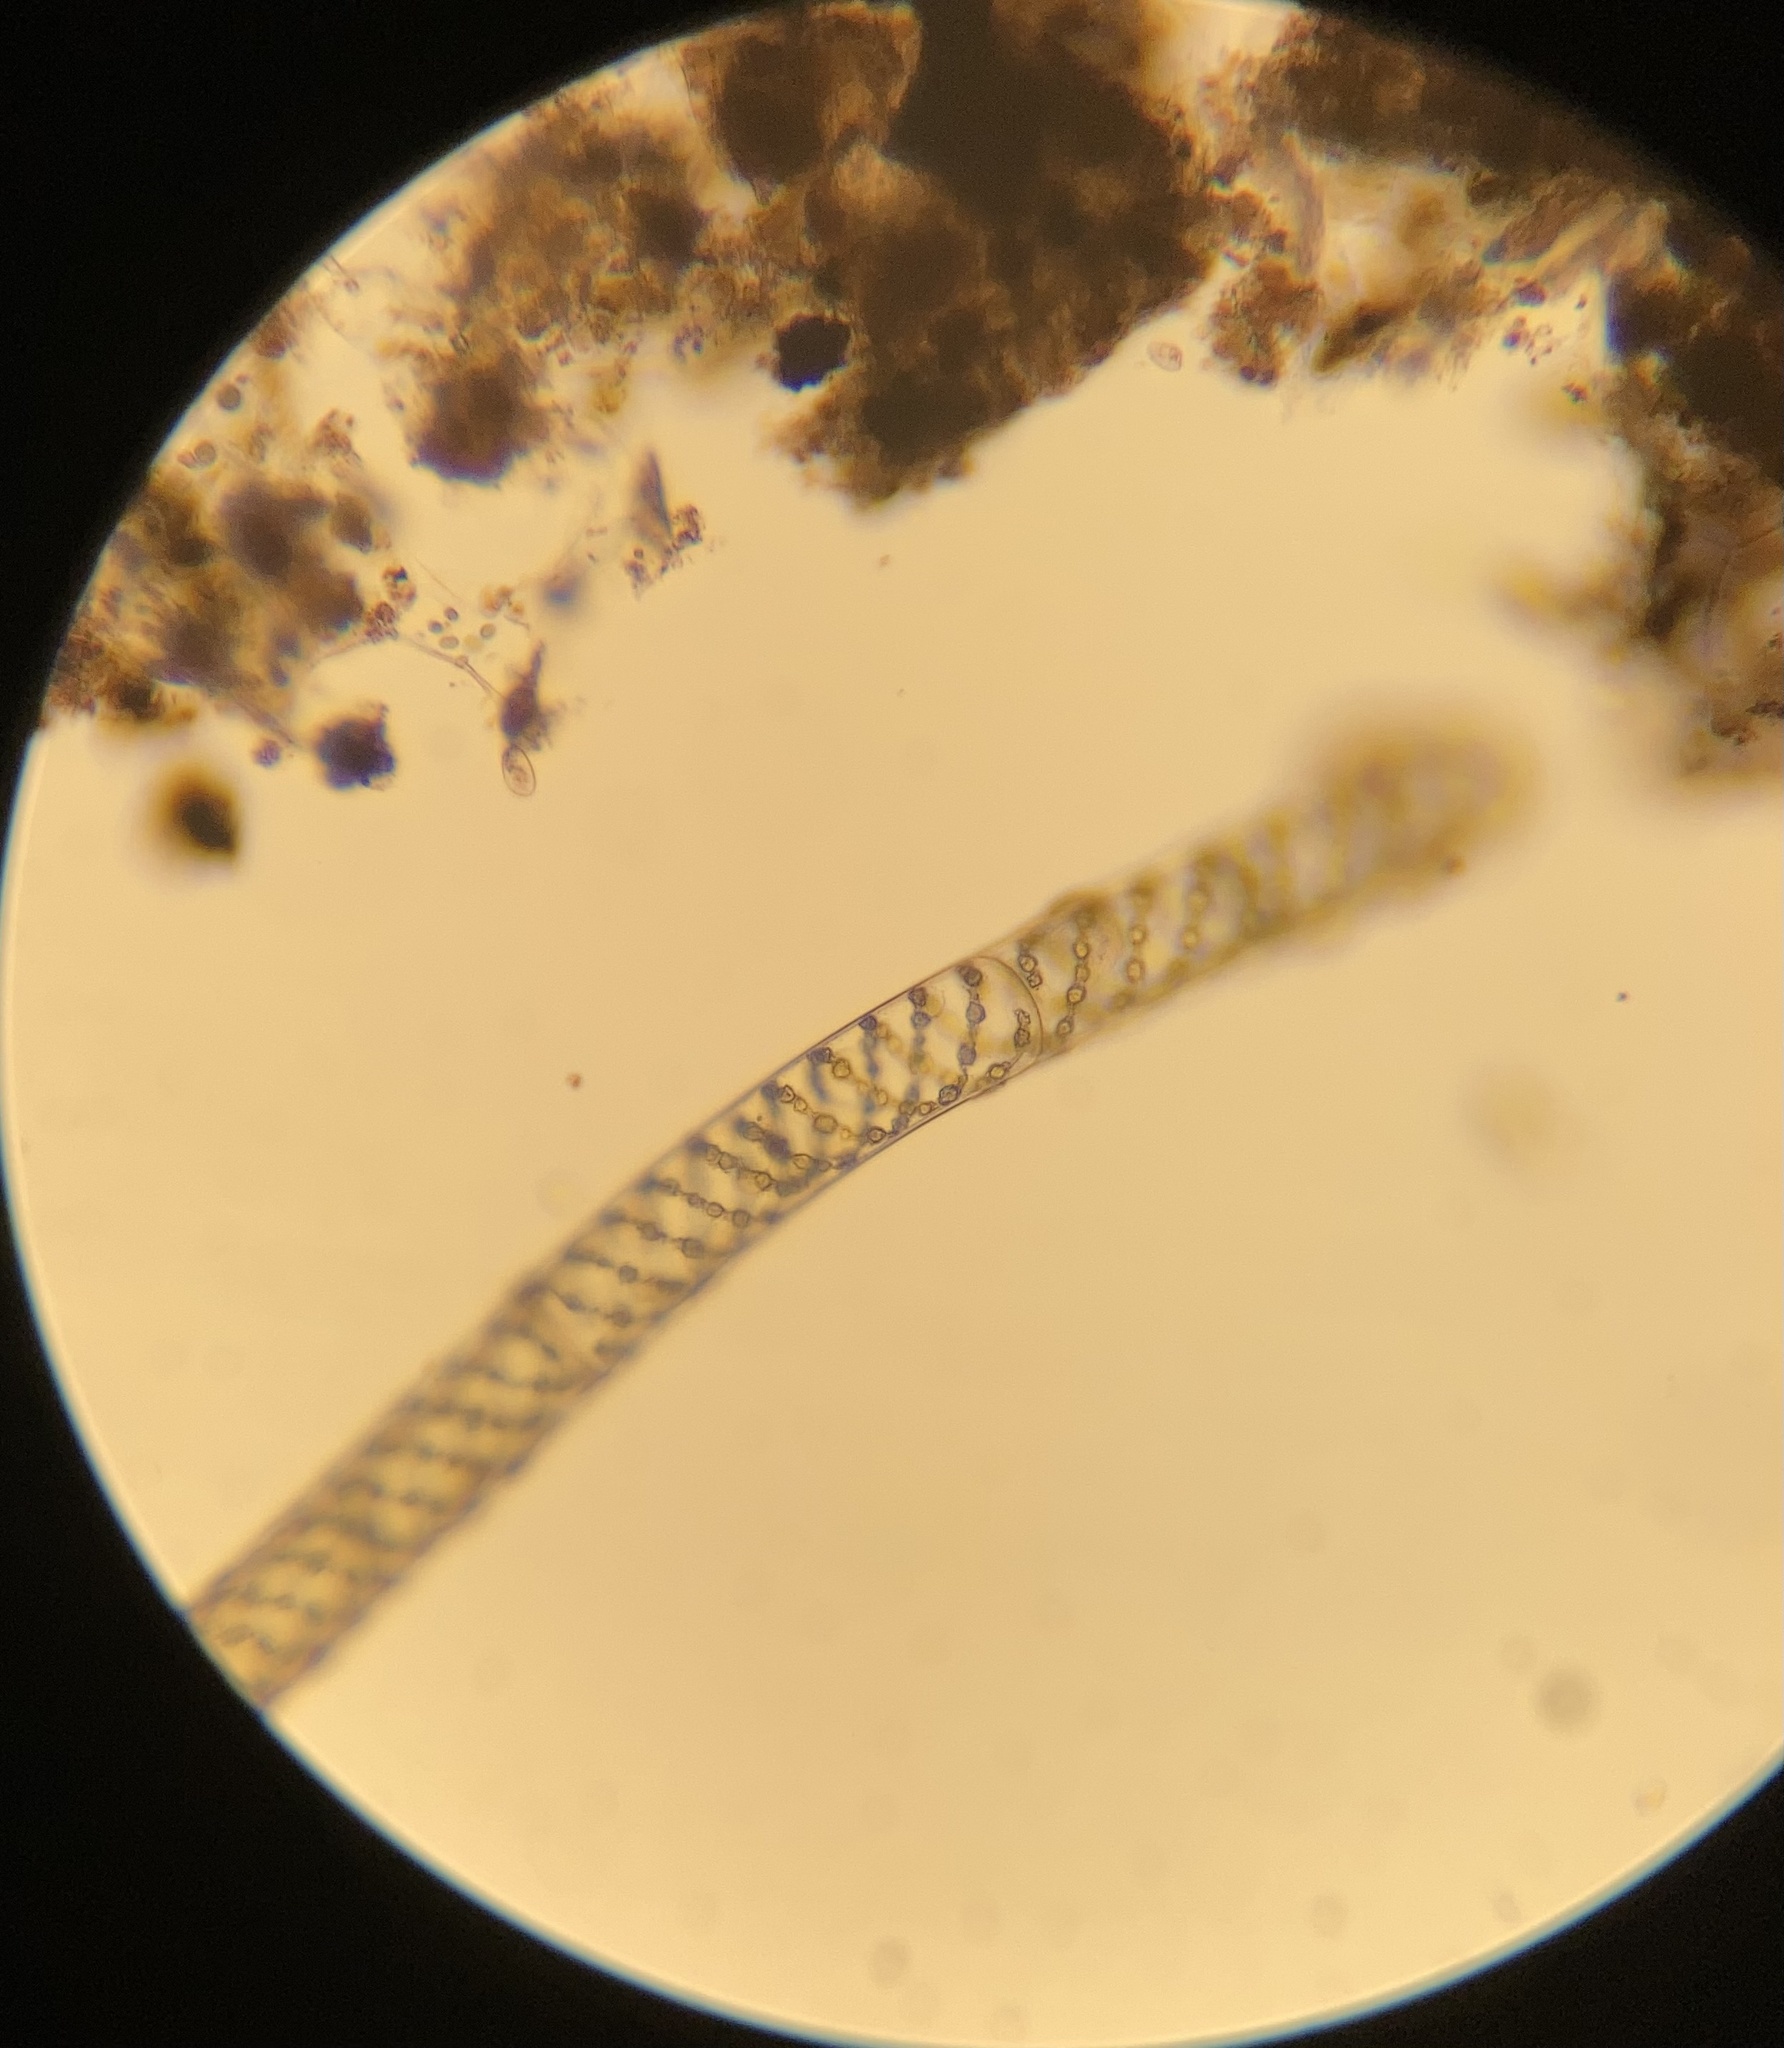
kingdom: Plantae
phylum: Charophyta
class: Zygnematophyceae
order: Zygnematales
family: Zygnemataceae
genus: Spirogyra
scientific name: Spirogyra
